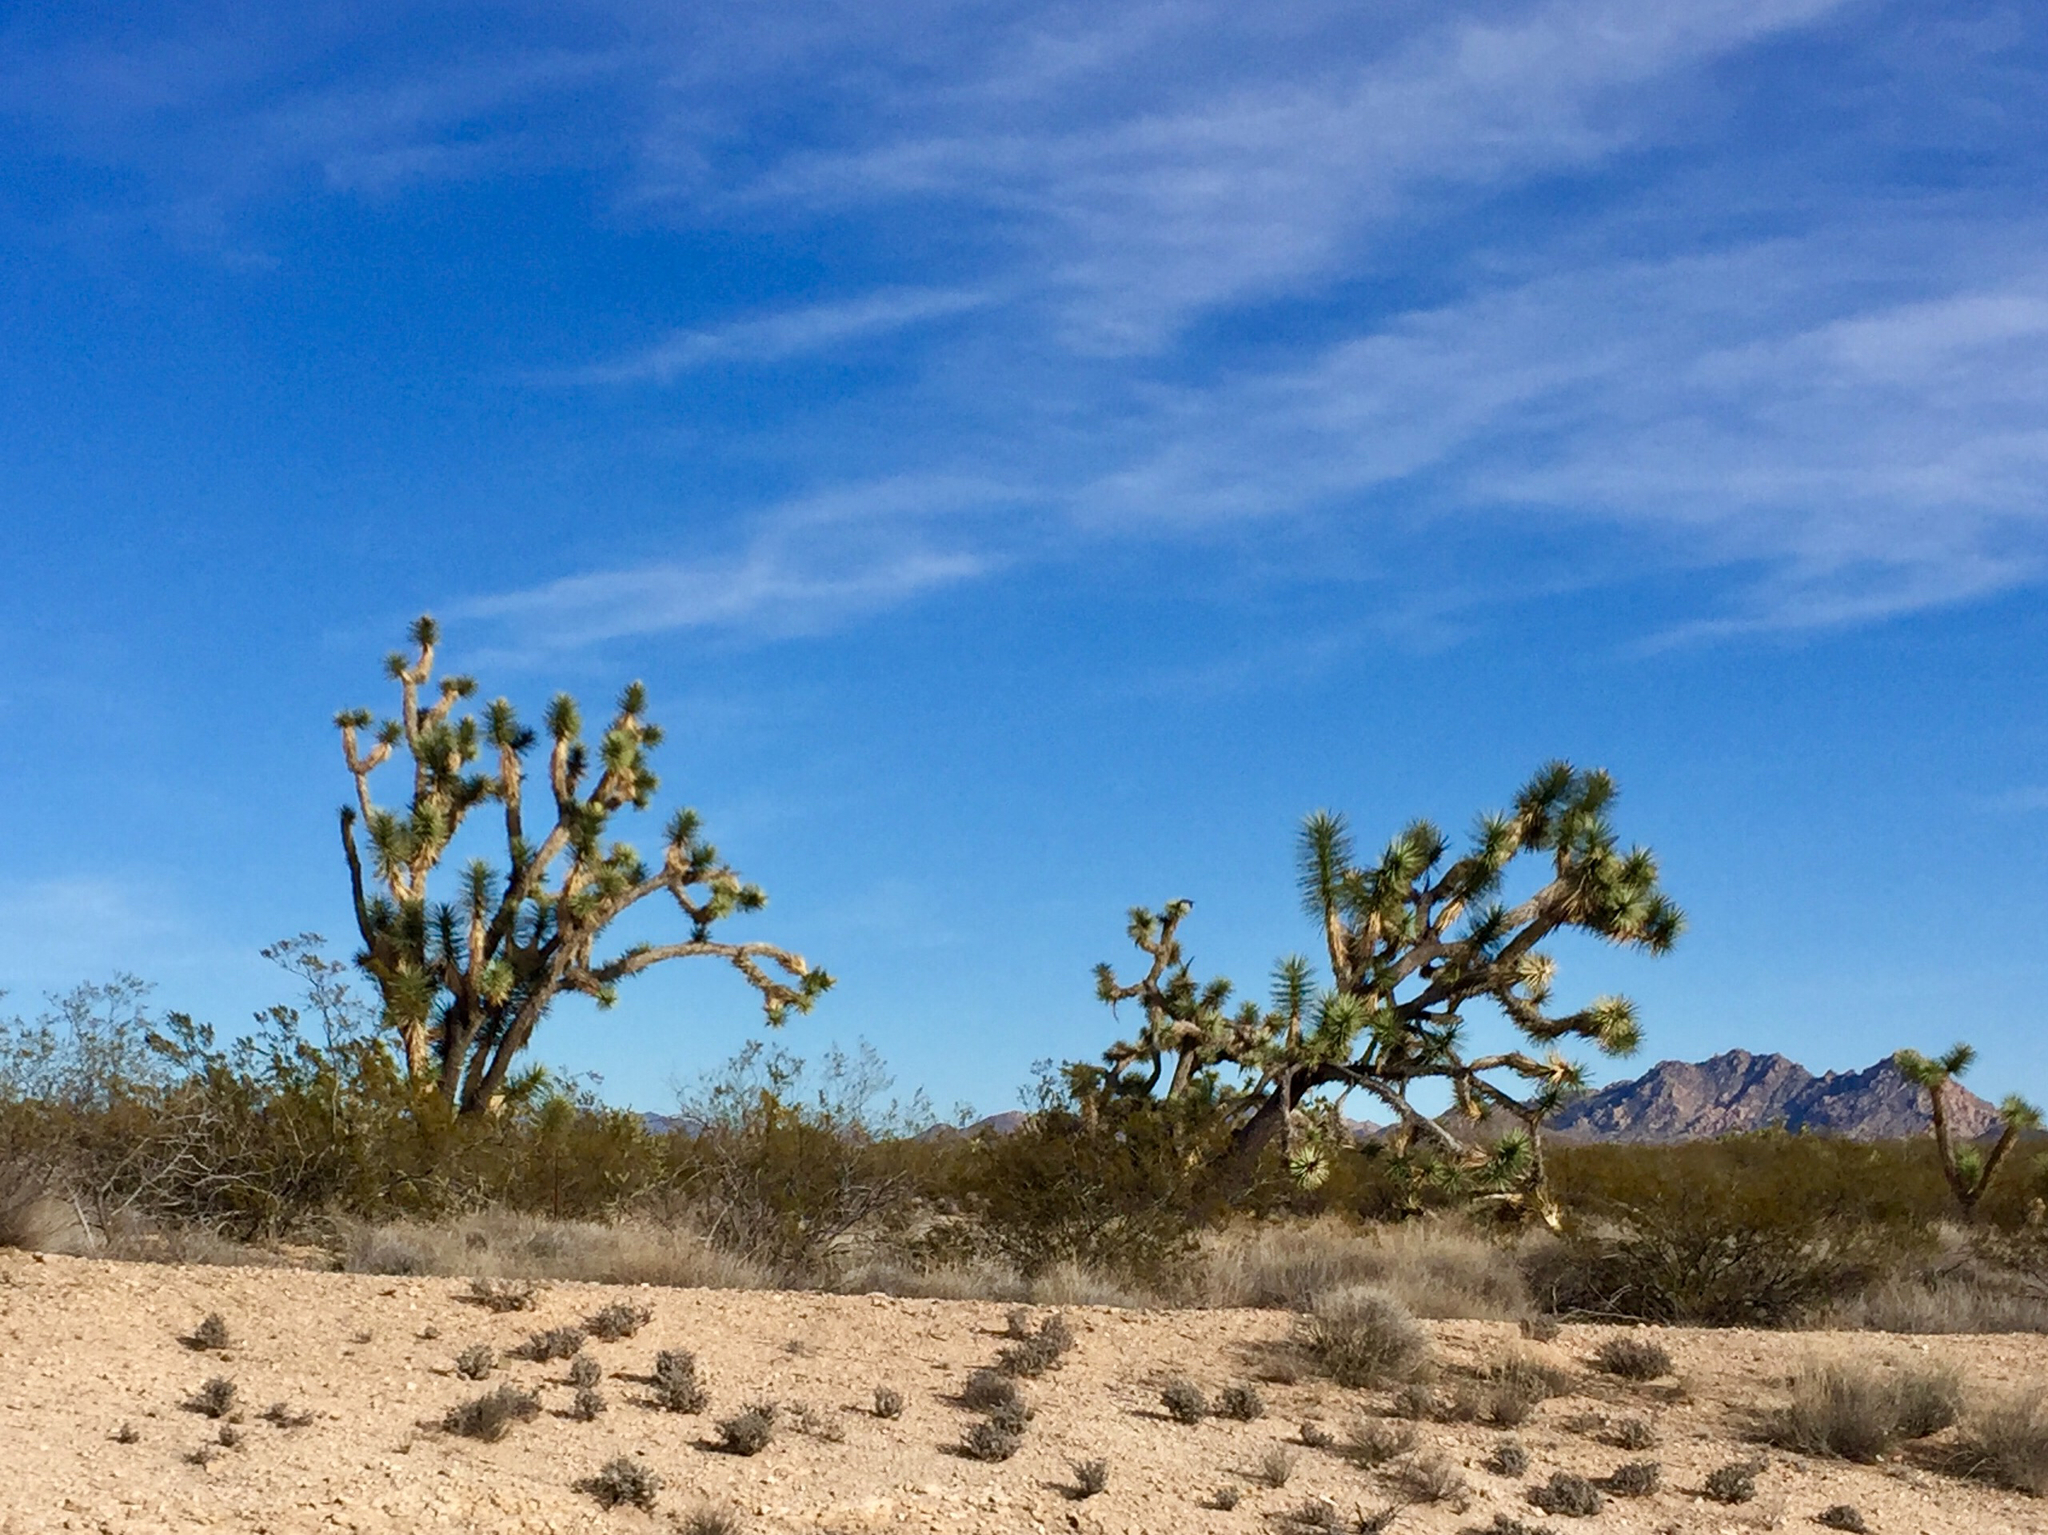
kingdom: Plantae
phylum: Tracheophyta
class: Liliopsida
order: Asparagales
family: Asparagaceae
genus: Yucca
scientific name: Yucca brevifolia
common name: Joshua tree
